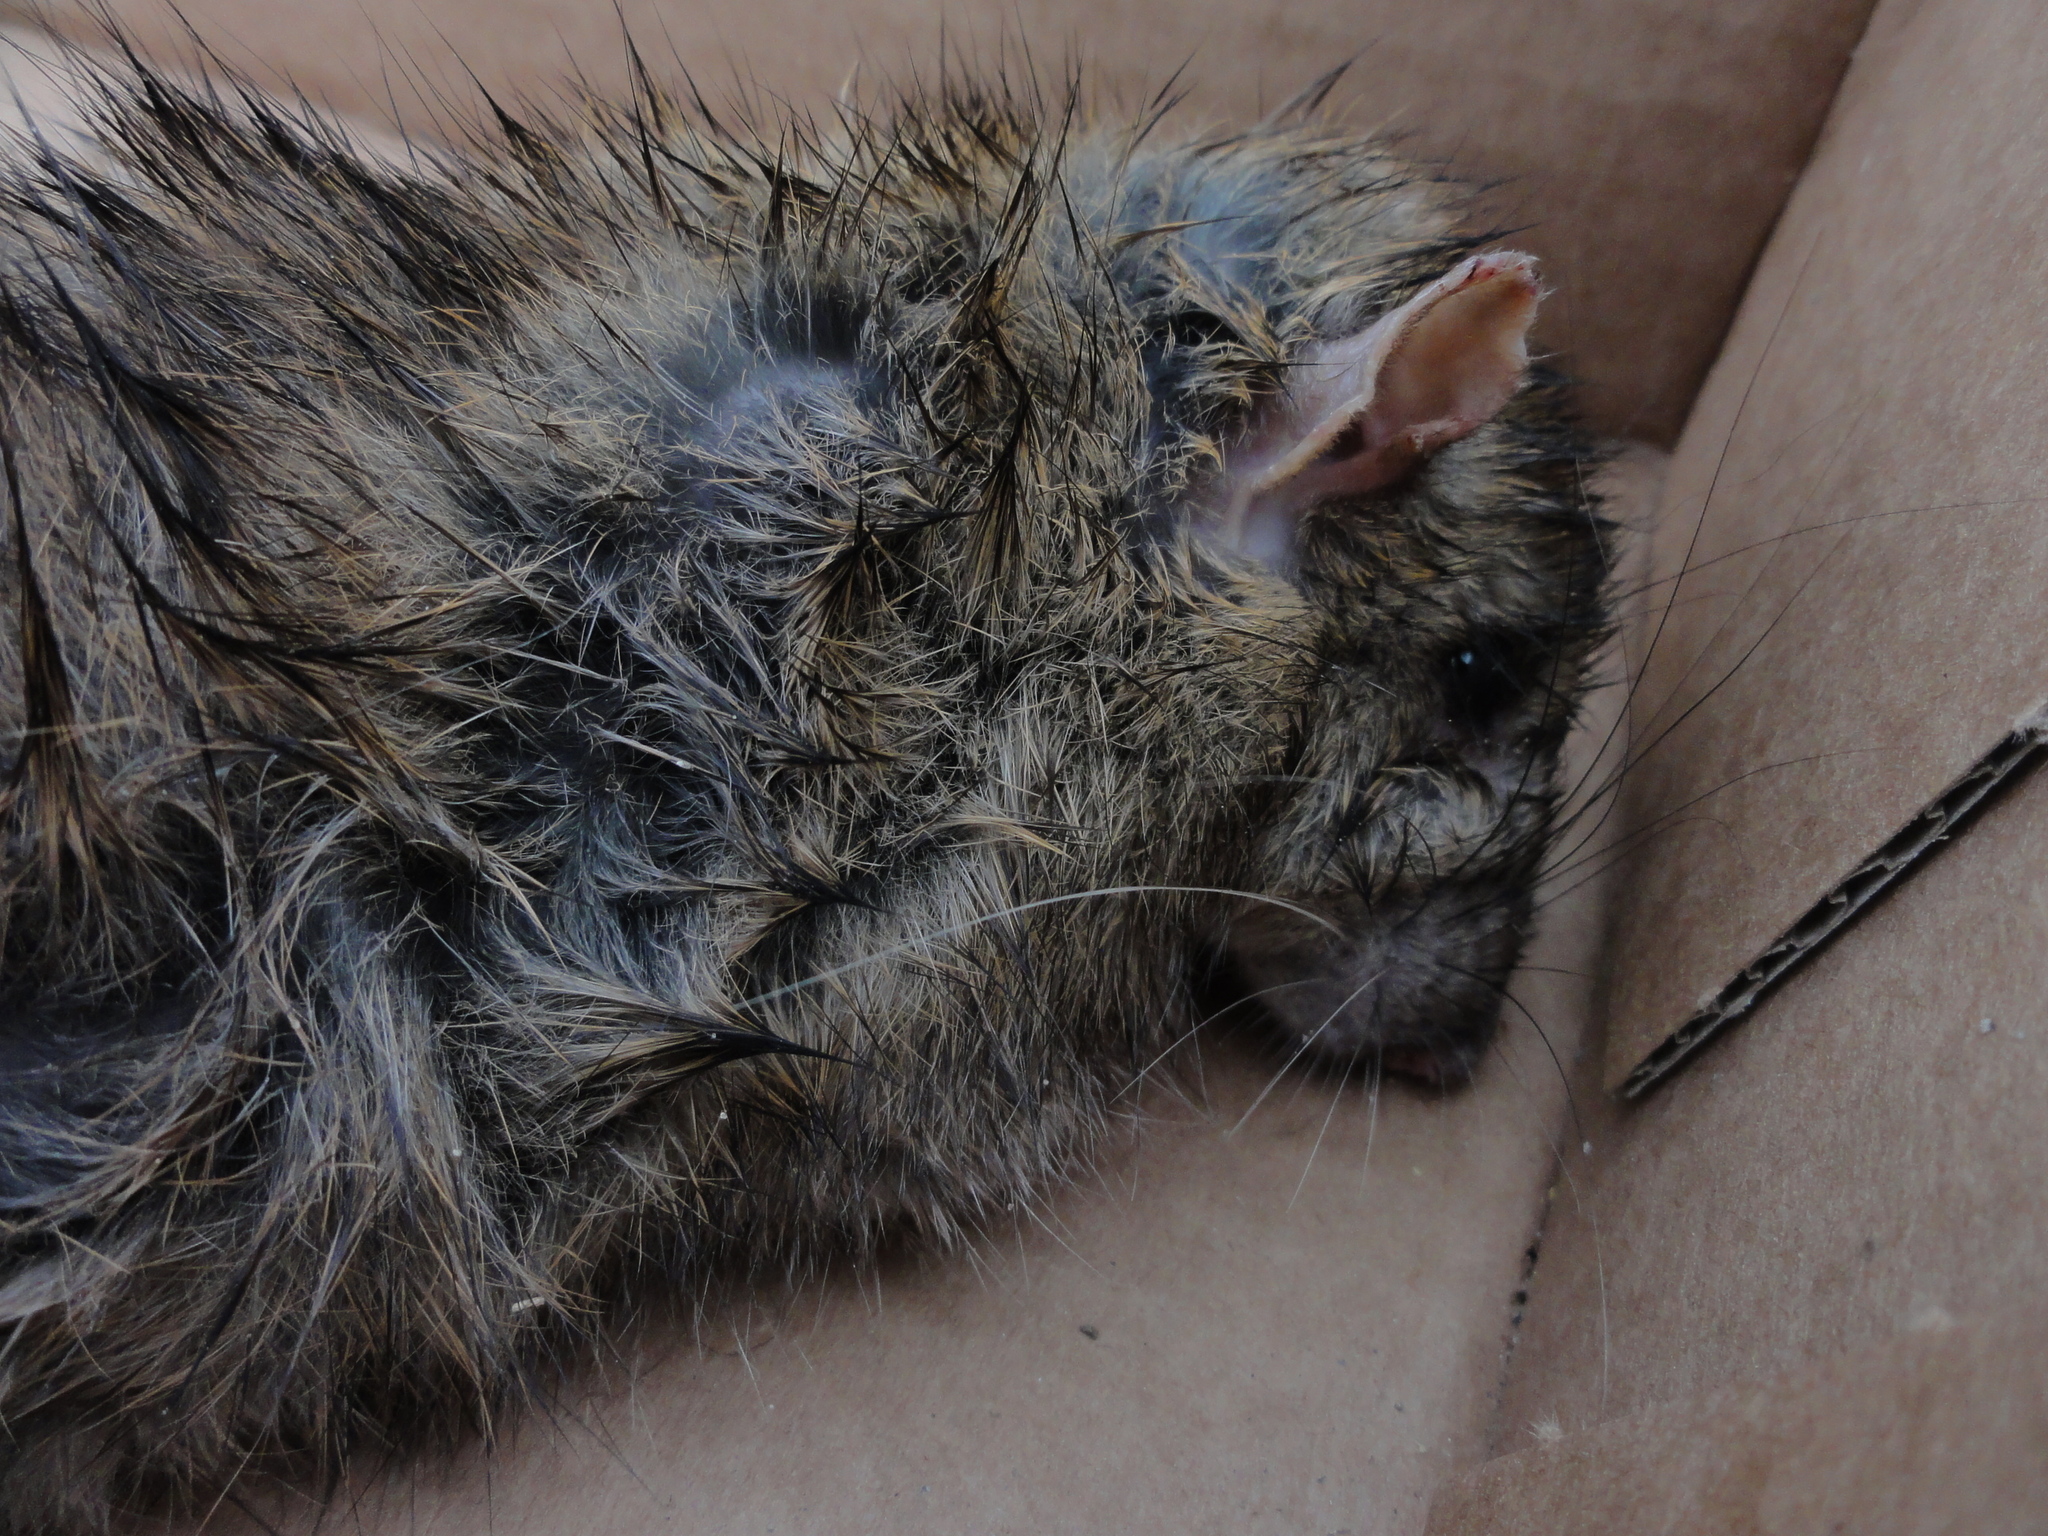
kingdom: Animalia
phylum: Chordata
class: Mammalia
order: Rodentia
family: Muridae
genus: Rattus
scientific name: Rattus norvegicus
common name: Brown rat
